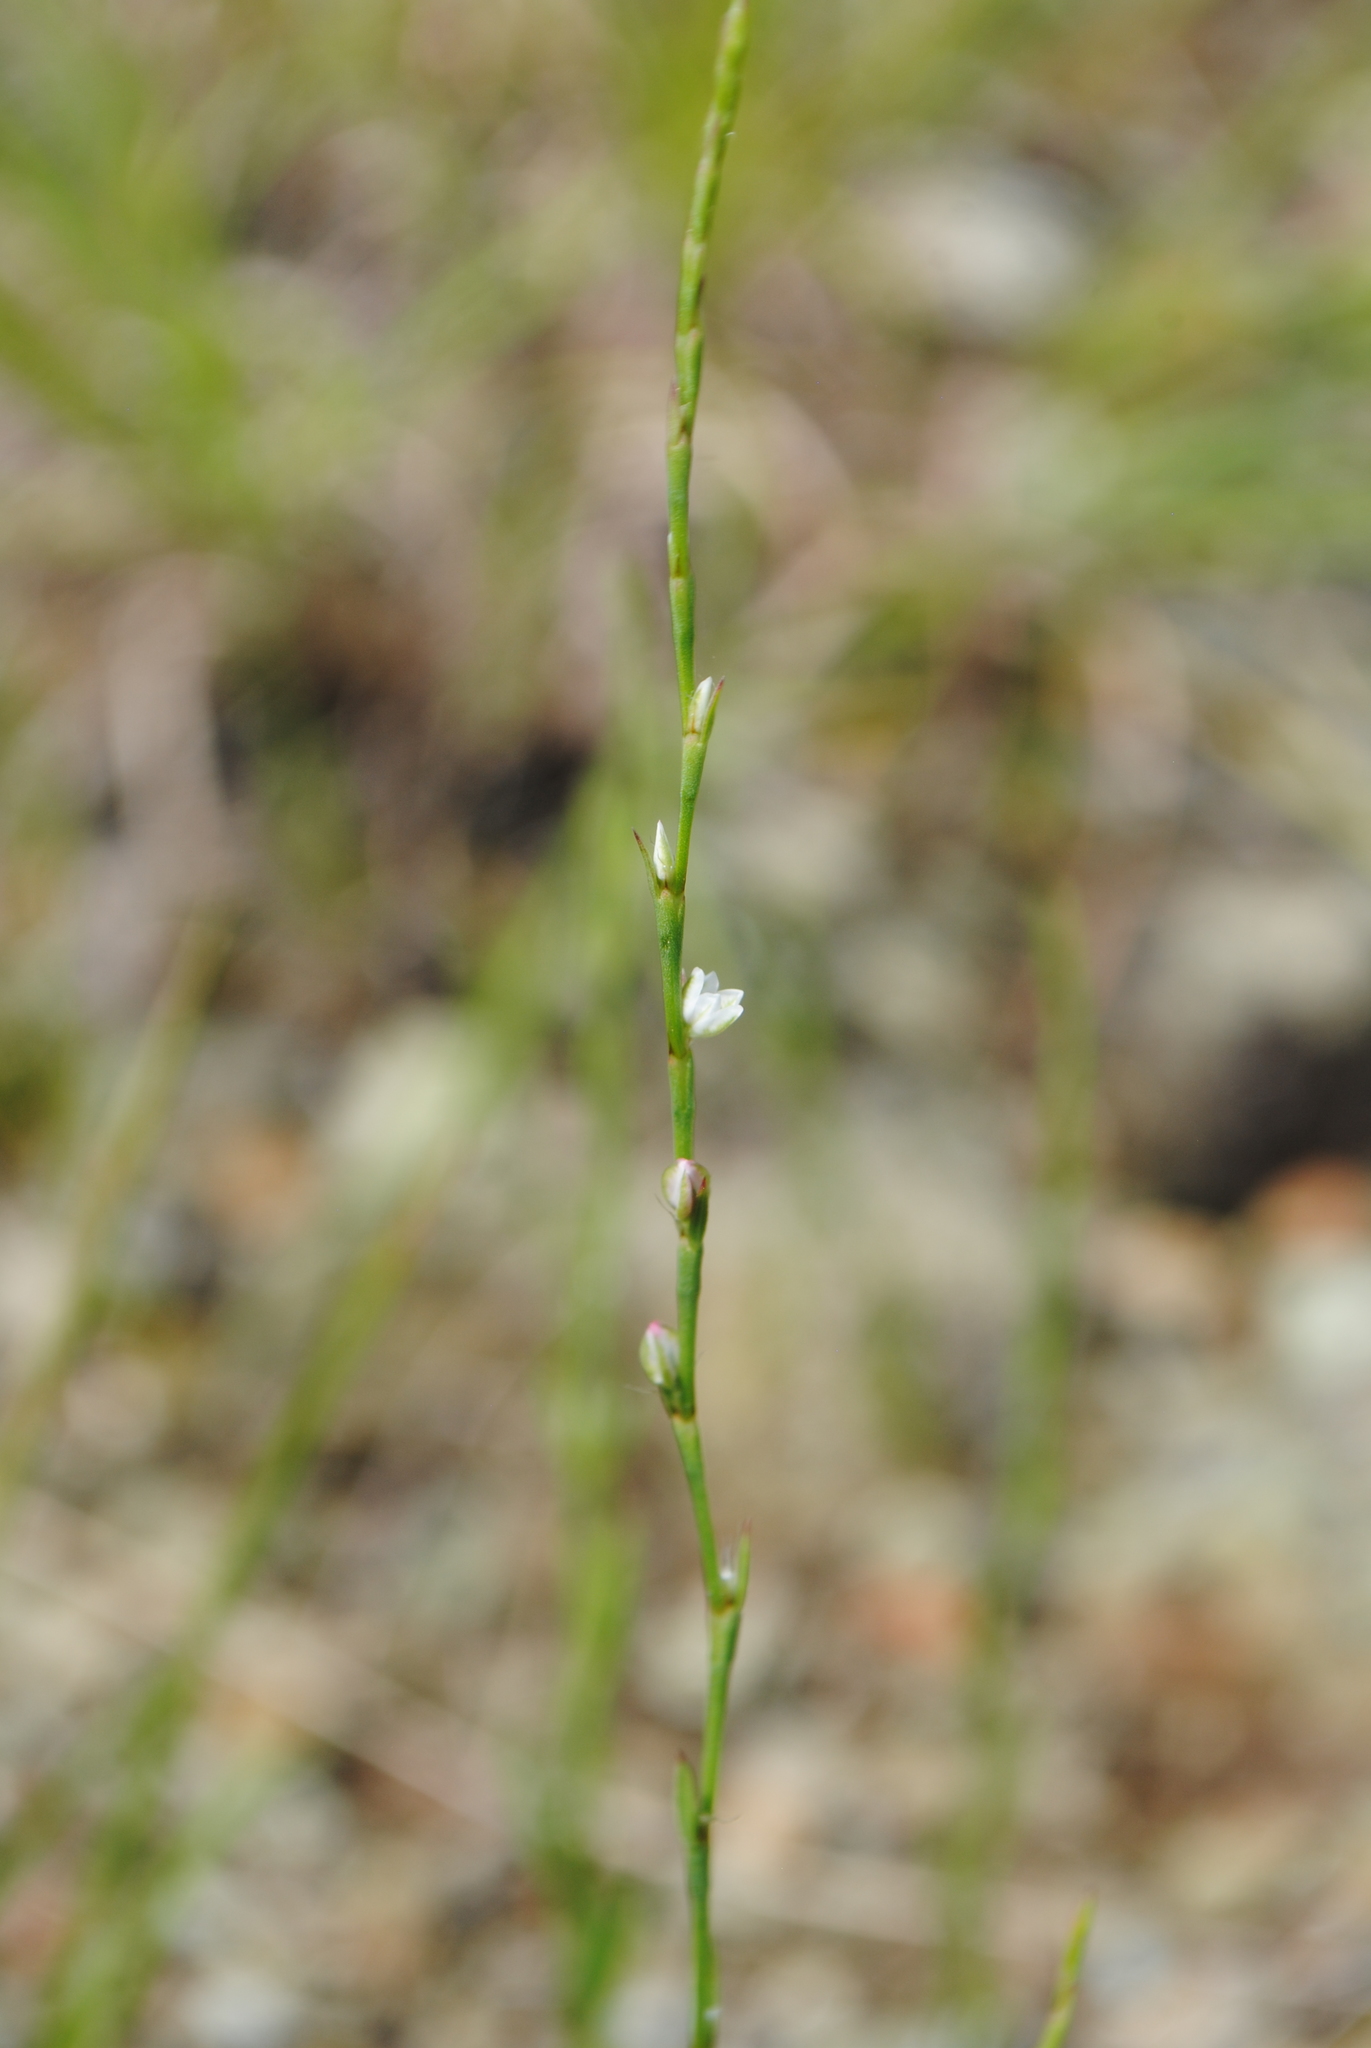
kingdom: Plantae
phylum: Tracheophyta
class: Magnoliopsida
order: Caryophyllales
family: Polygonaceae
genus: Polygonum
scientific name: Polygonum tenue
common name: Pleat-leaved knotweed
